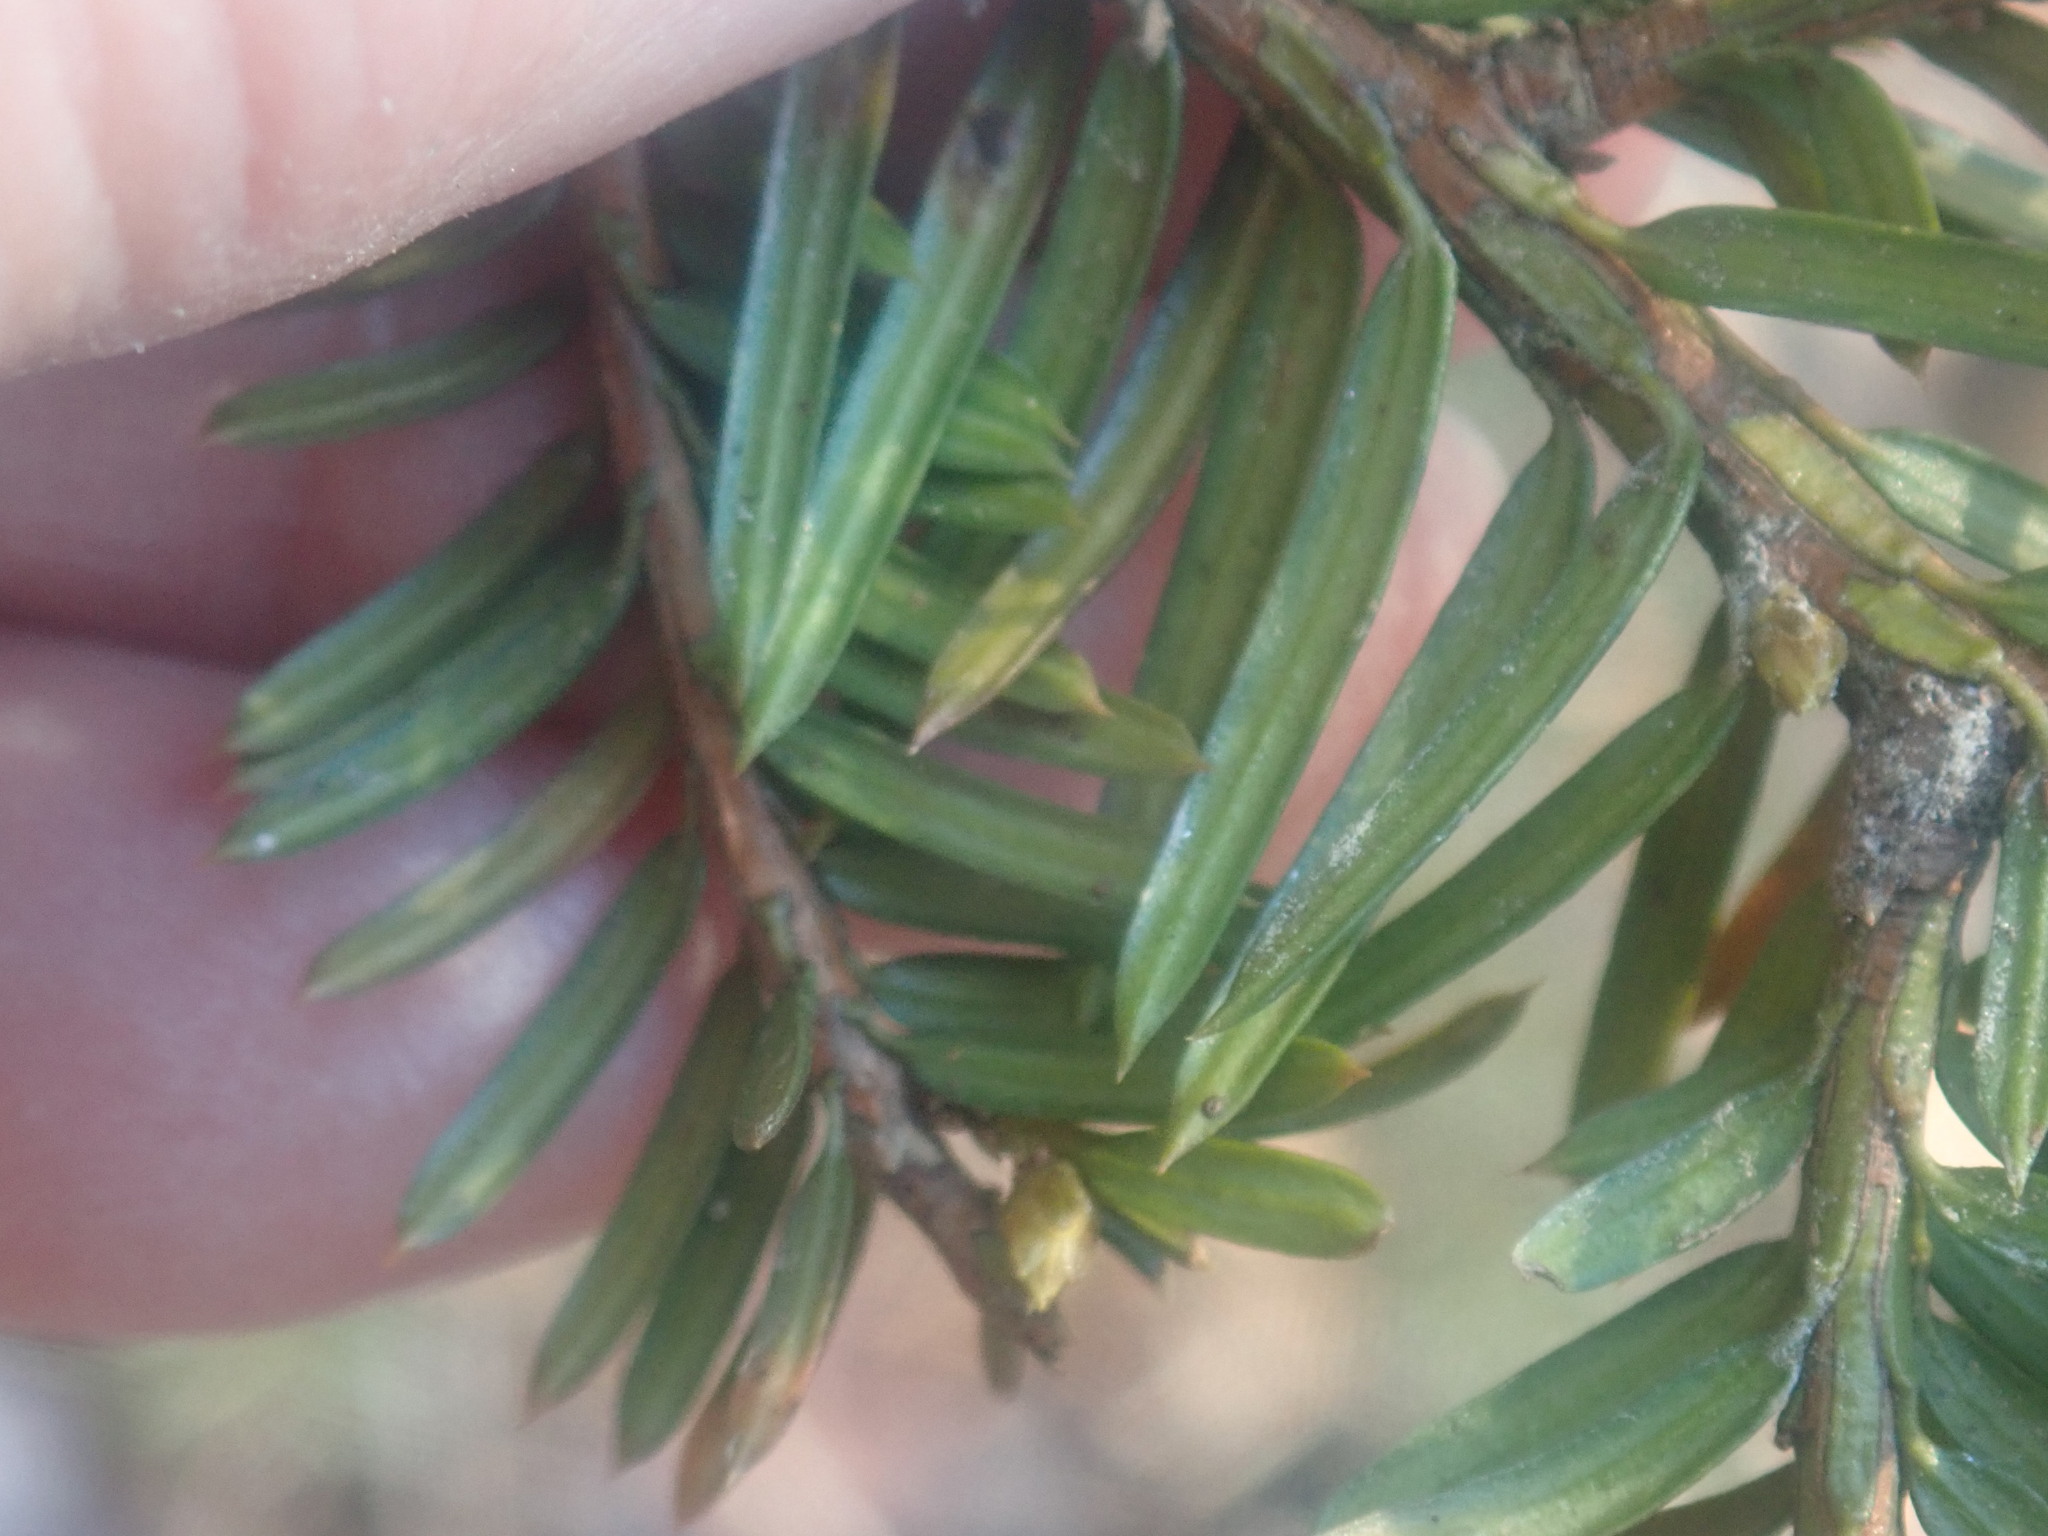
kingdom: Plantae
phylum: Tracheophyta
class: Pinopsida
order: Pinales
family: Taxaceae
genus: Taxus
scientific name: Taxus canadensis
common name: American yew
